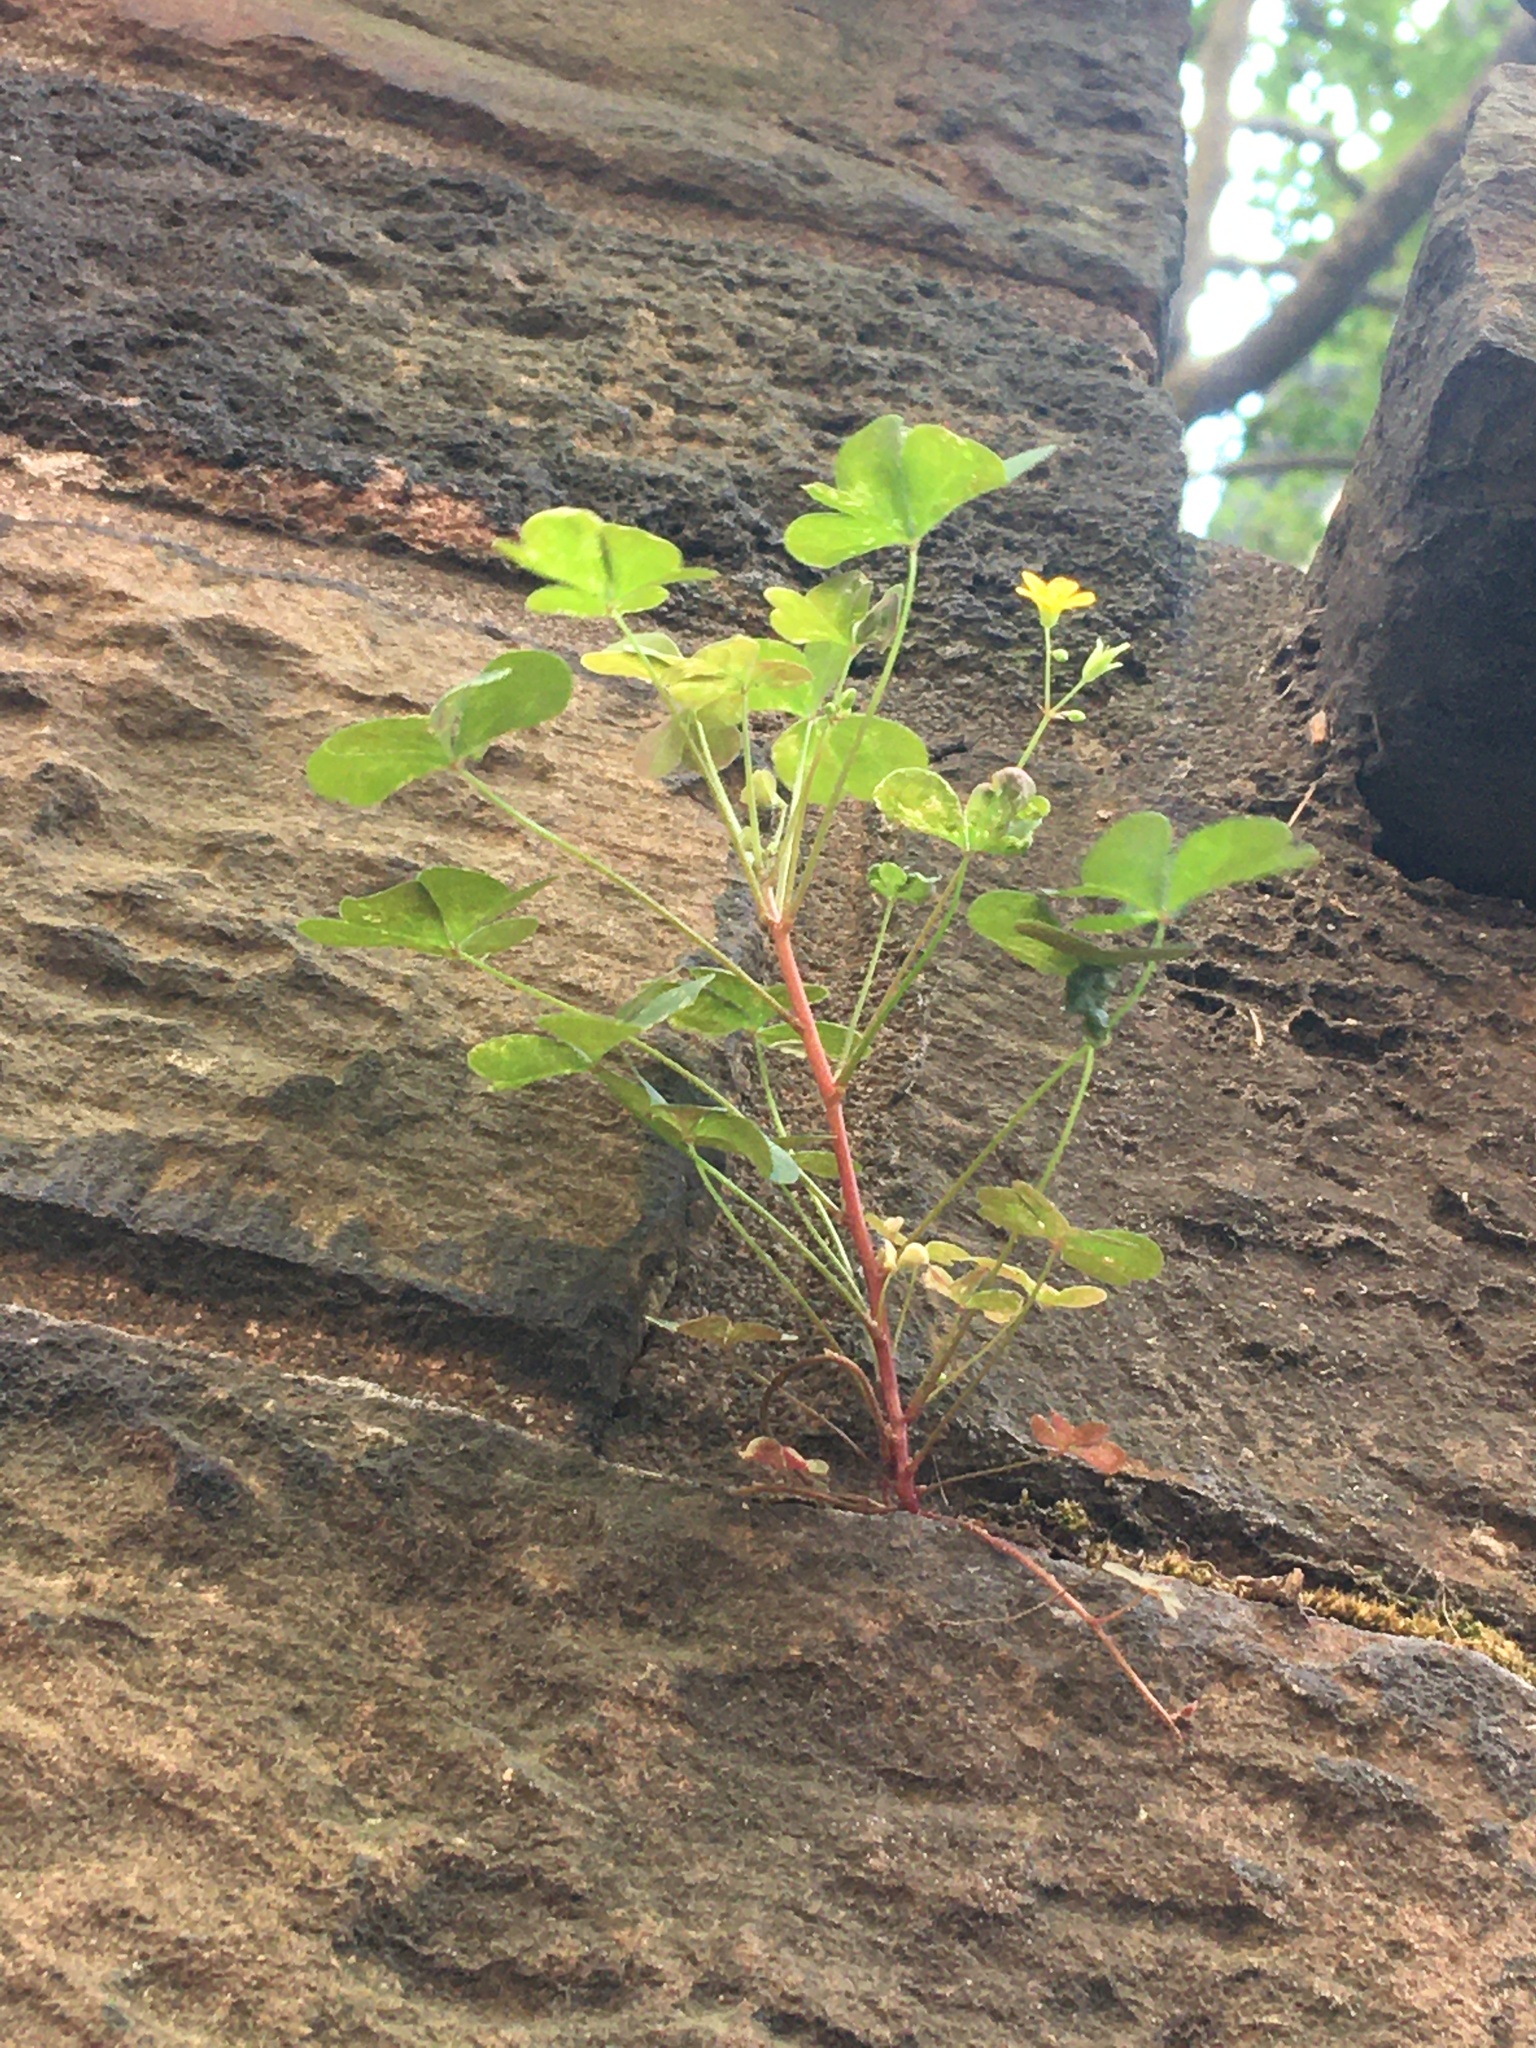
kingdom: Plantae
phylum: Tracheophyta
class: Magnoliopsida
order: Oxalidales
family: Oxalidaceae
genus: Oxalis
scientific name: Oxalis corniculata
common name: Procumbent yellow-sorrel
